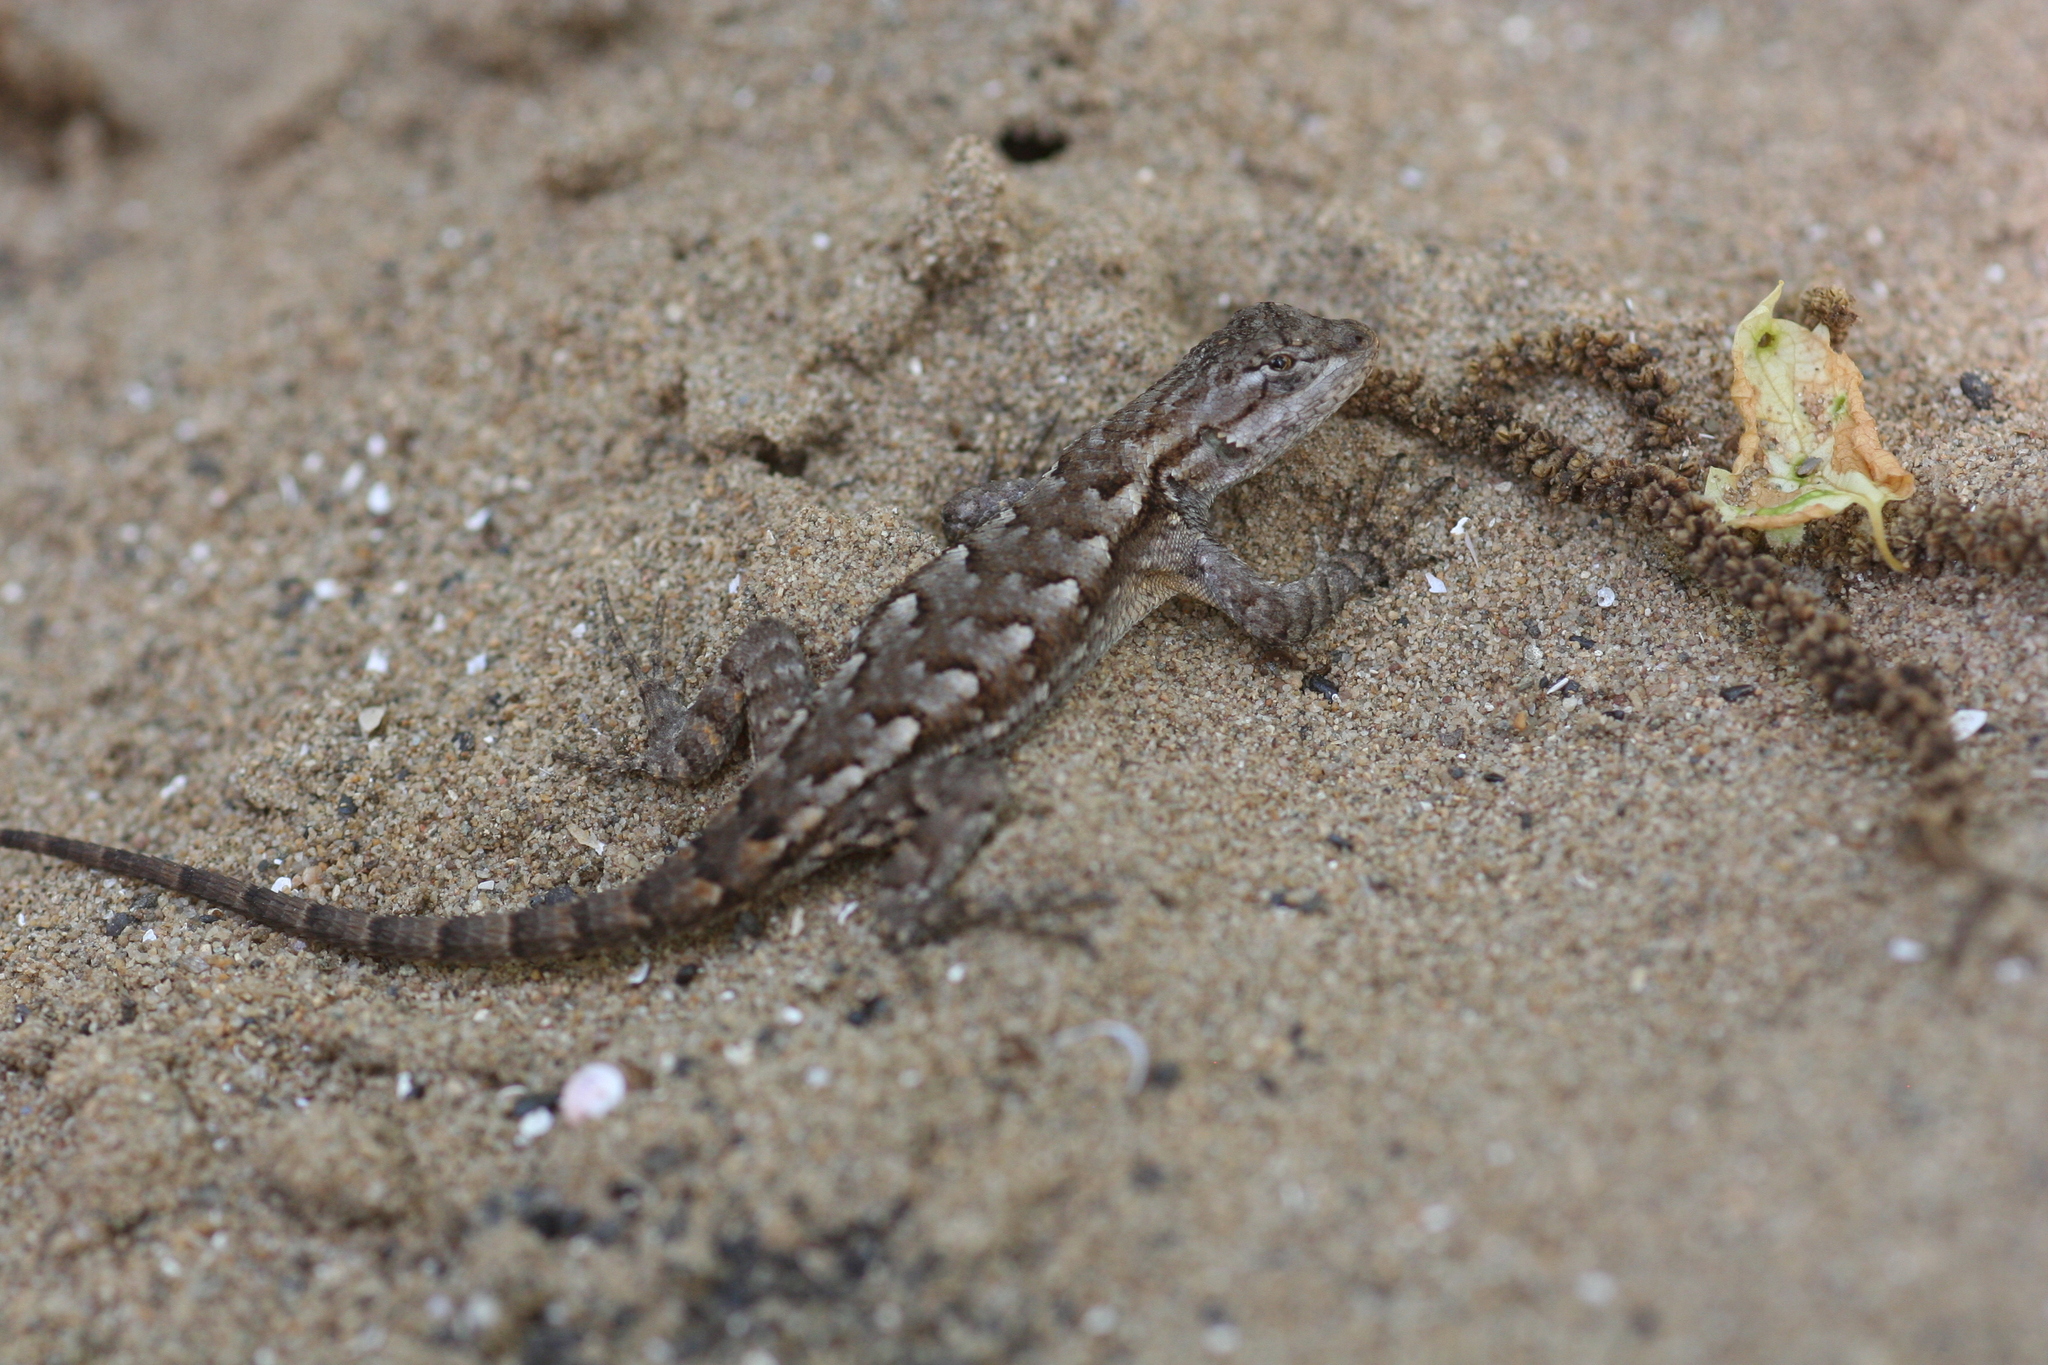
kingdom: Animalia
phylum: Chordata
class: Squamata
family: Phrynosomatidae
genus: Sceloporus
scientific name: Sceloporus undulatus
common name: Eastern fence lizard
